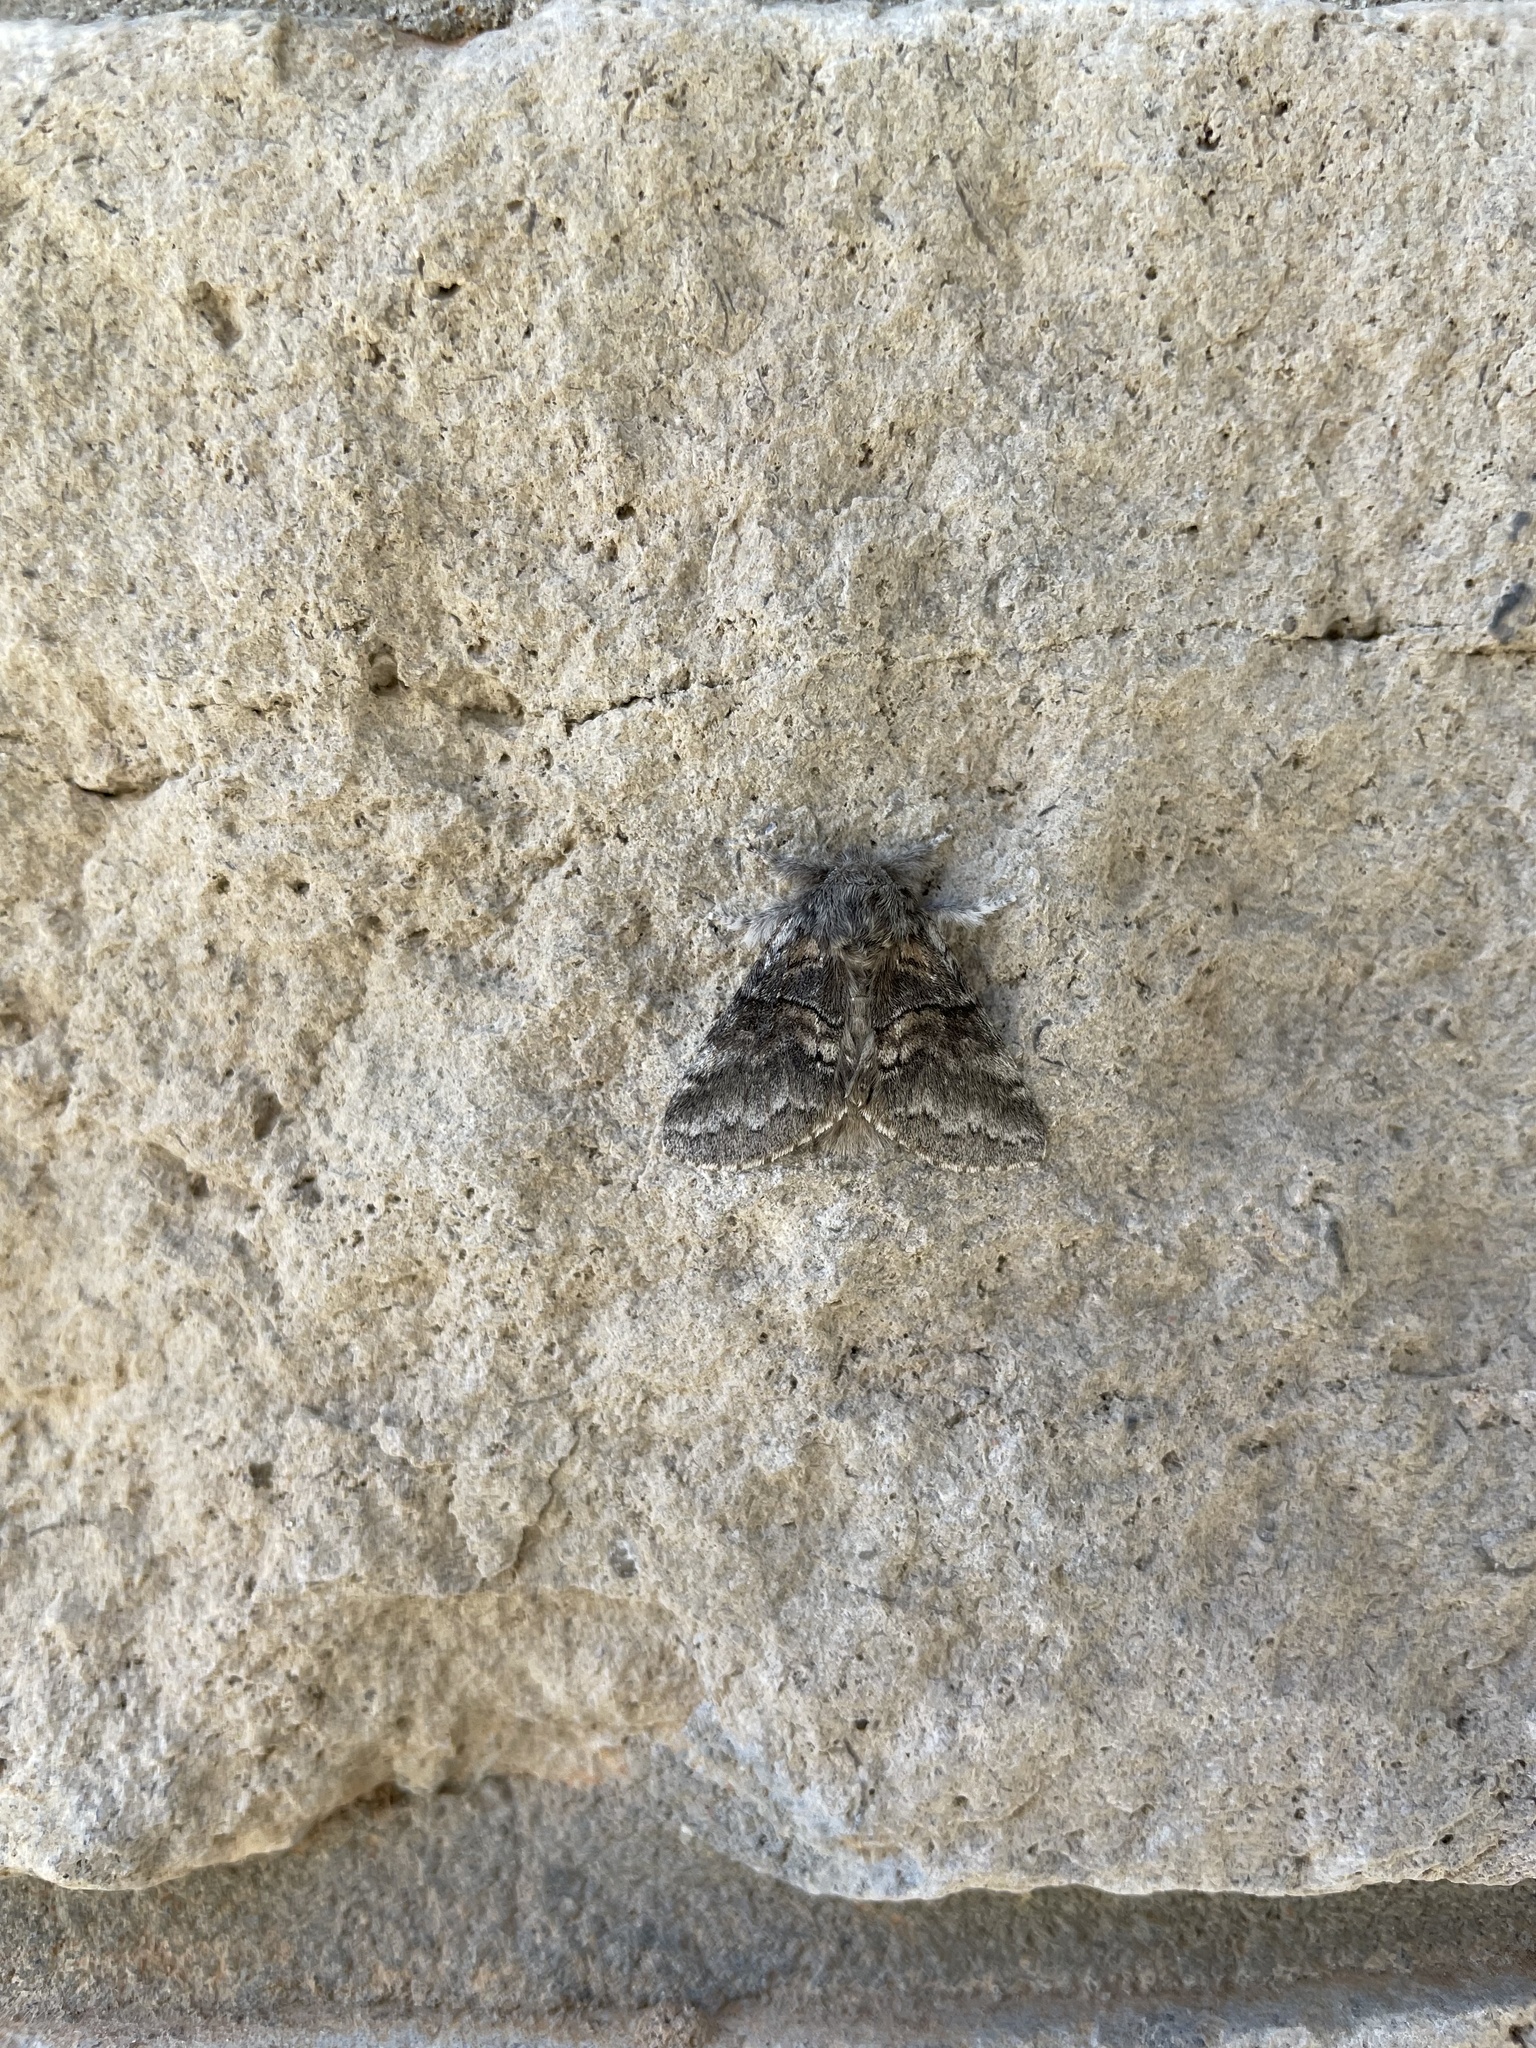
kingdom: Animalia
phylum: Arthropoda
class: Insecta
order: Lepidoptera
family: Notodontidae
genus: Gluphisia
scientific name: Gluphisia septentrionis
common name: Common gluphisia
